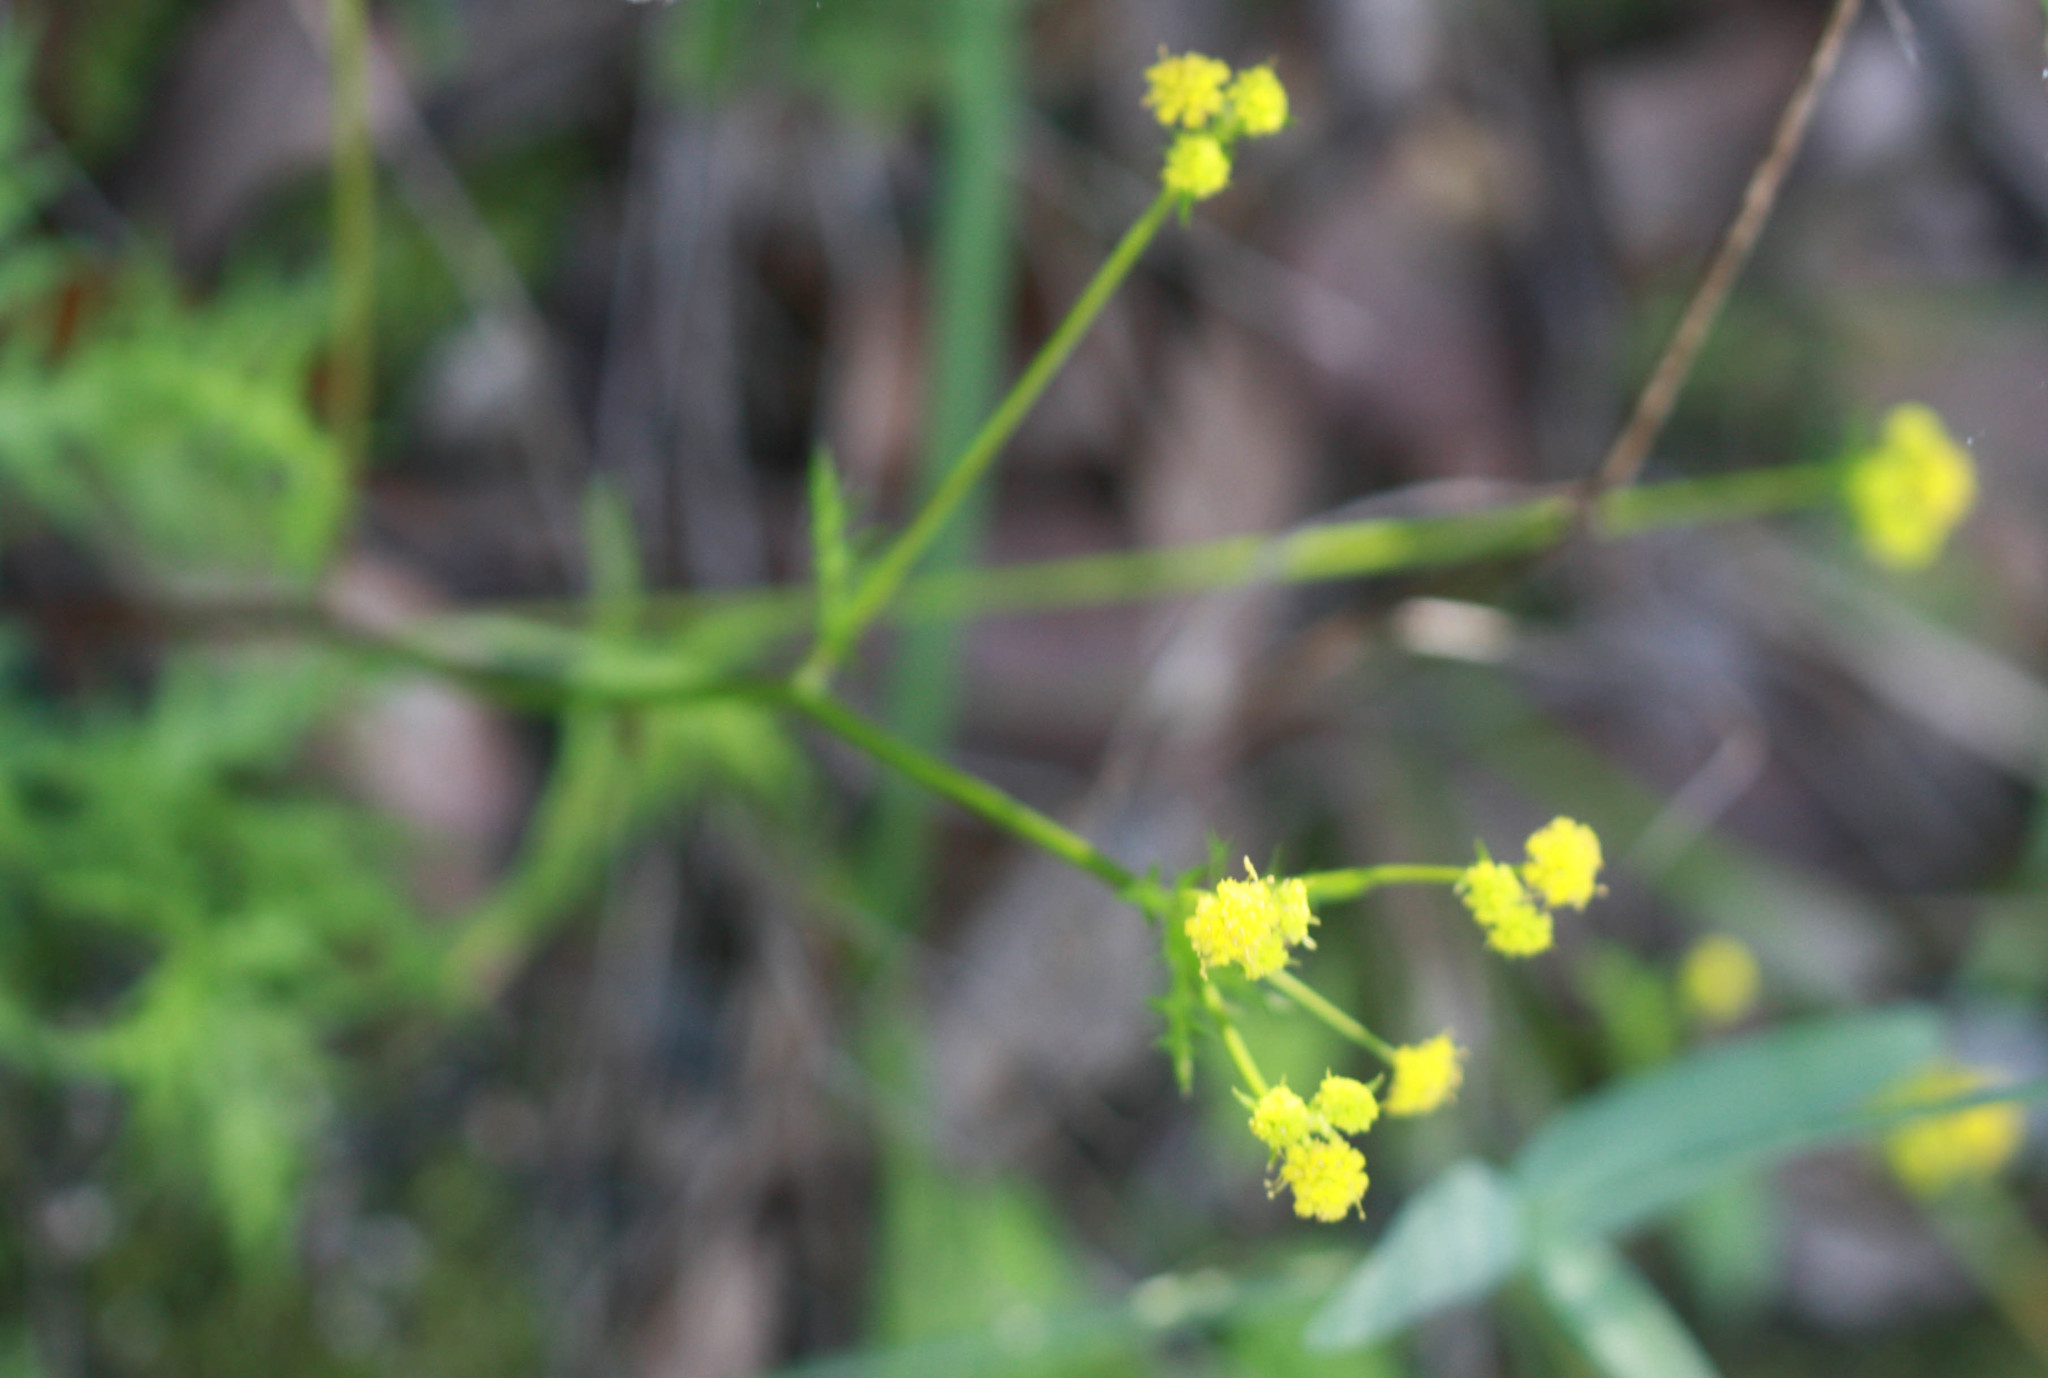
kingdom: Plantae
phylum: Tracheophyta
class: Magnoliopsida
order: Apiales
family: Apiaceae
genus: Sanicula
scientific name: Sanicula laciniata
